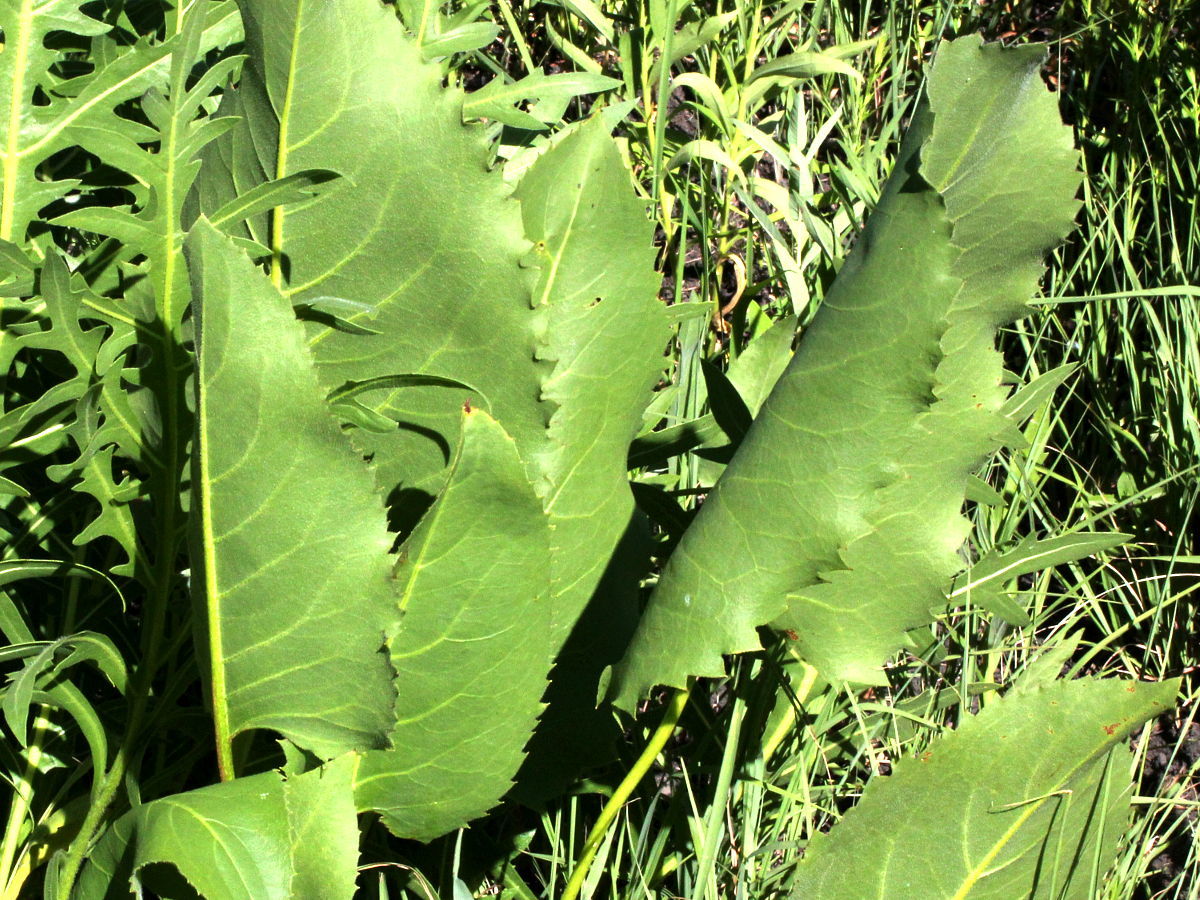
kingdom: Plantae
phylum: Tracheophyta
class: Magnoliopsida
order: Asterales
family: Asteraceae
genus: Silphium
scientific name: Silphium terebinthinaceum
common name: Basal-leaf rosinweed
